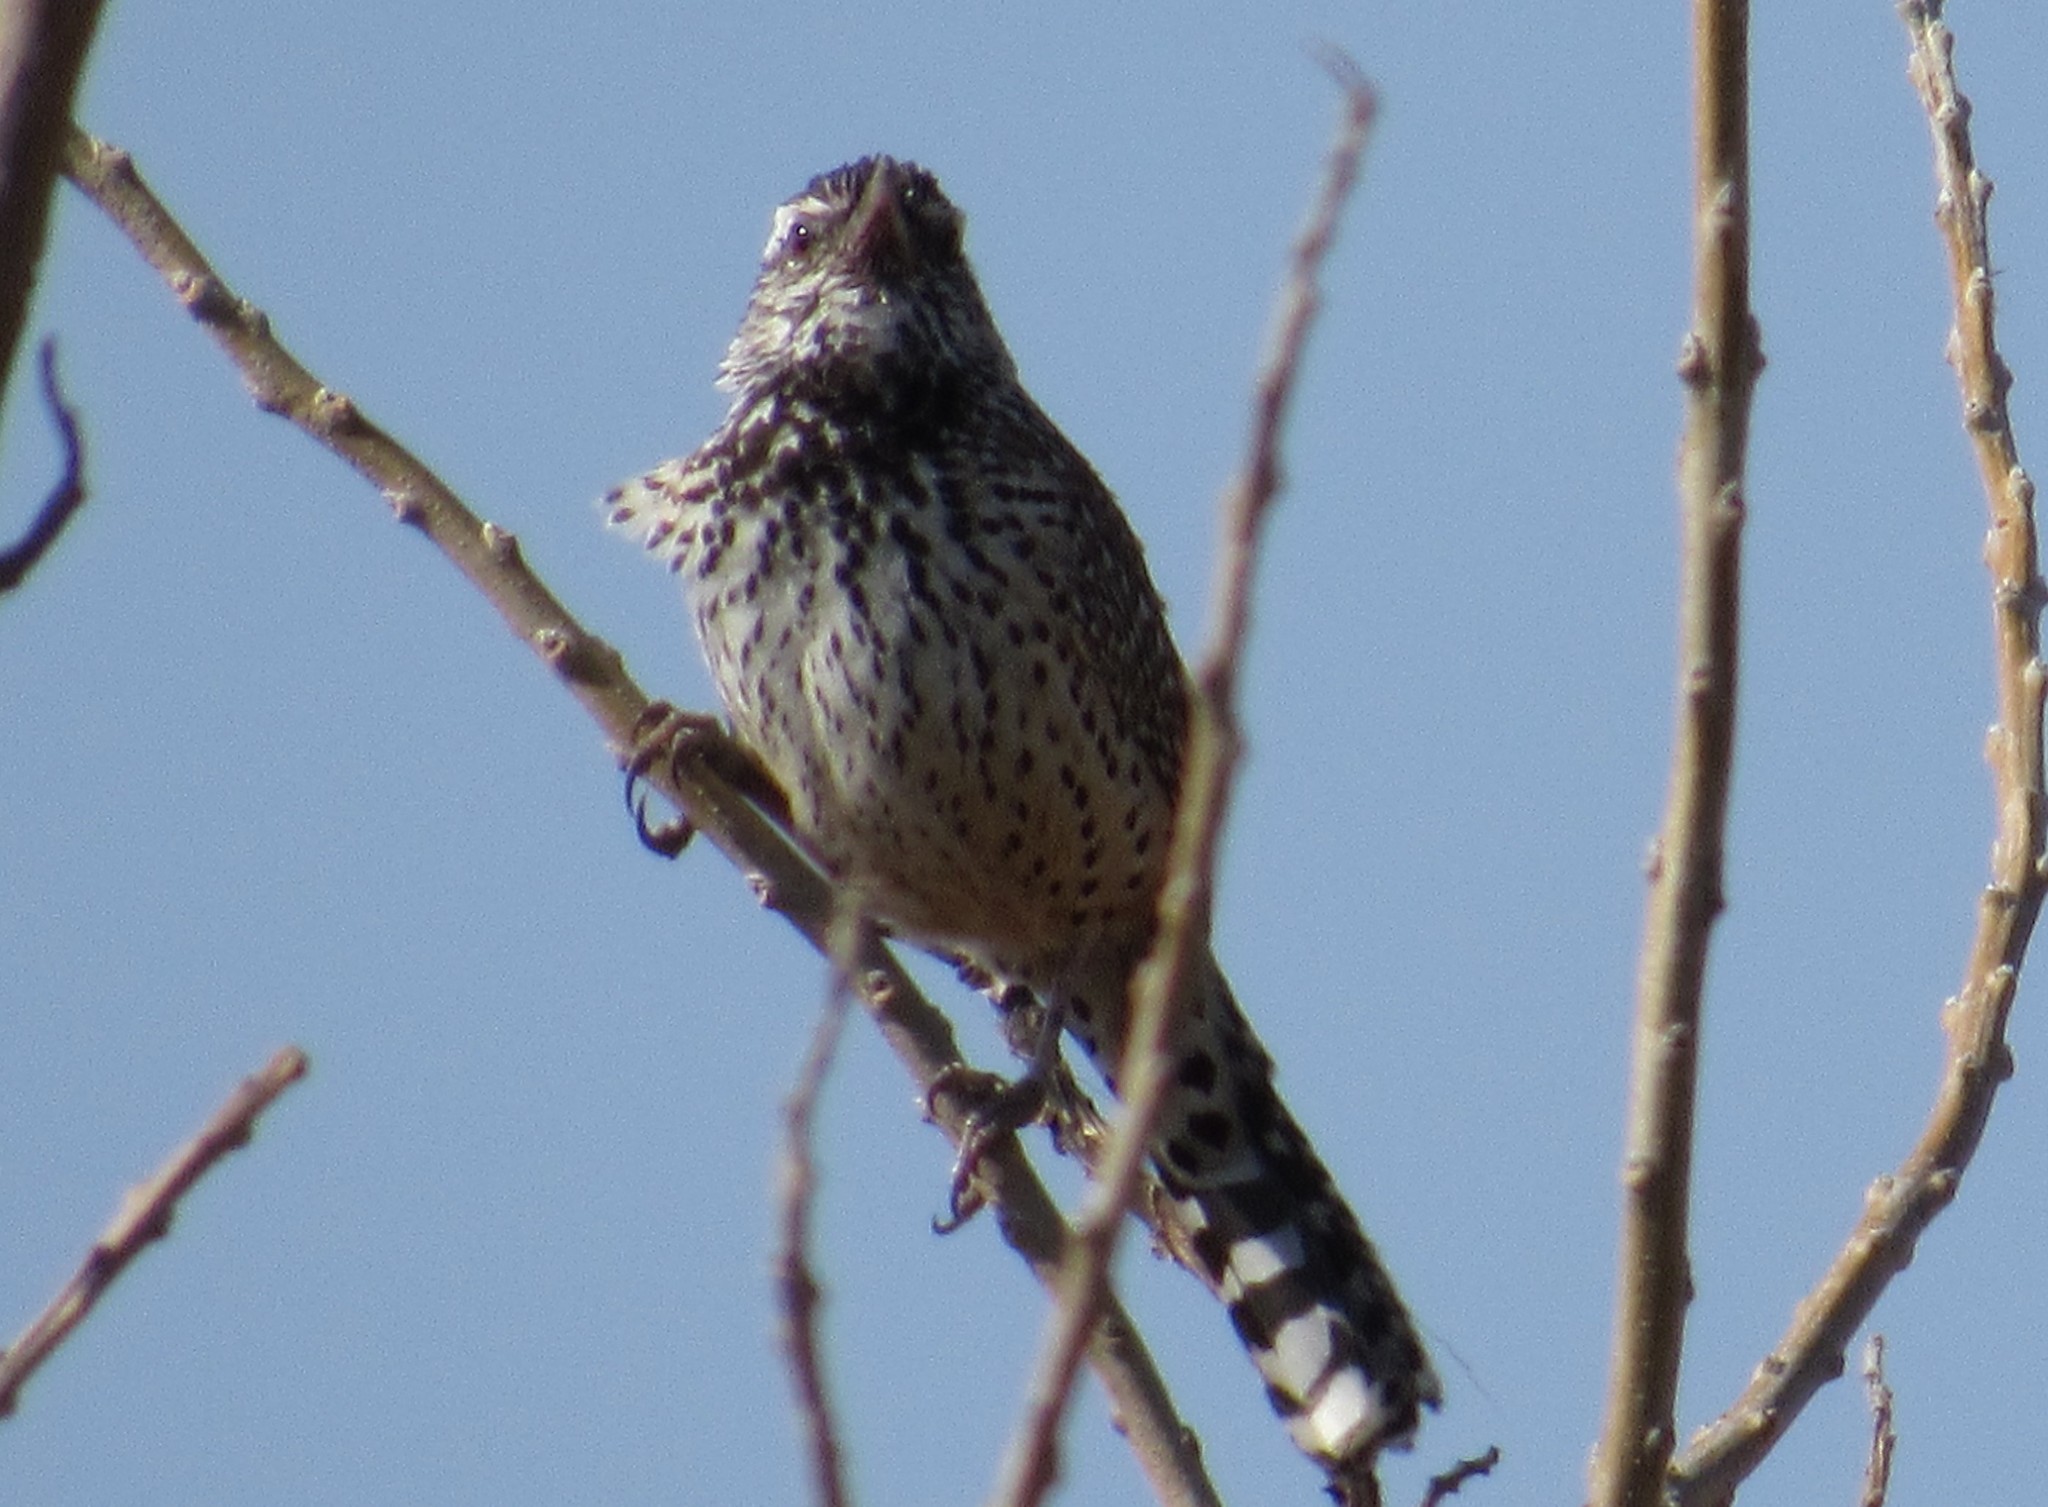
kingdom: Animalia
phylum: Chordata
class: Aves
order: Passeriformes
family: Troglodytidae
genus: Campylorhynchus
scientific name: Campylorhynchus brunneicapillus
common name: Cactus wren
